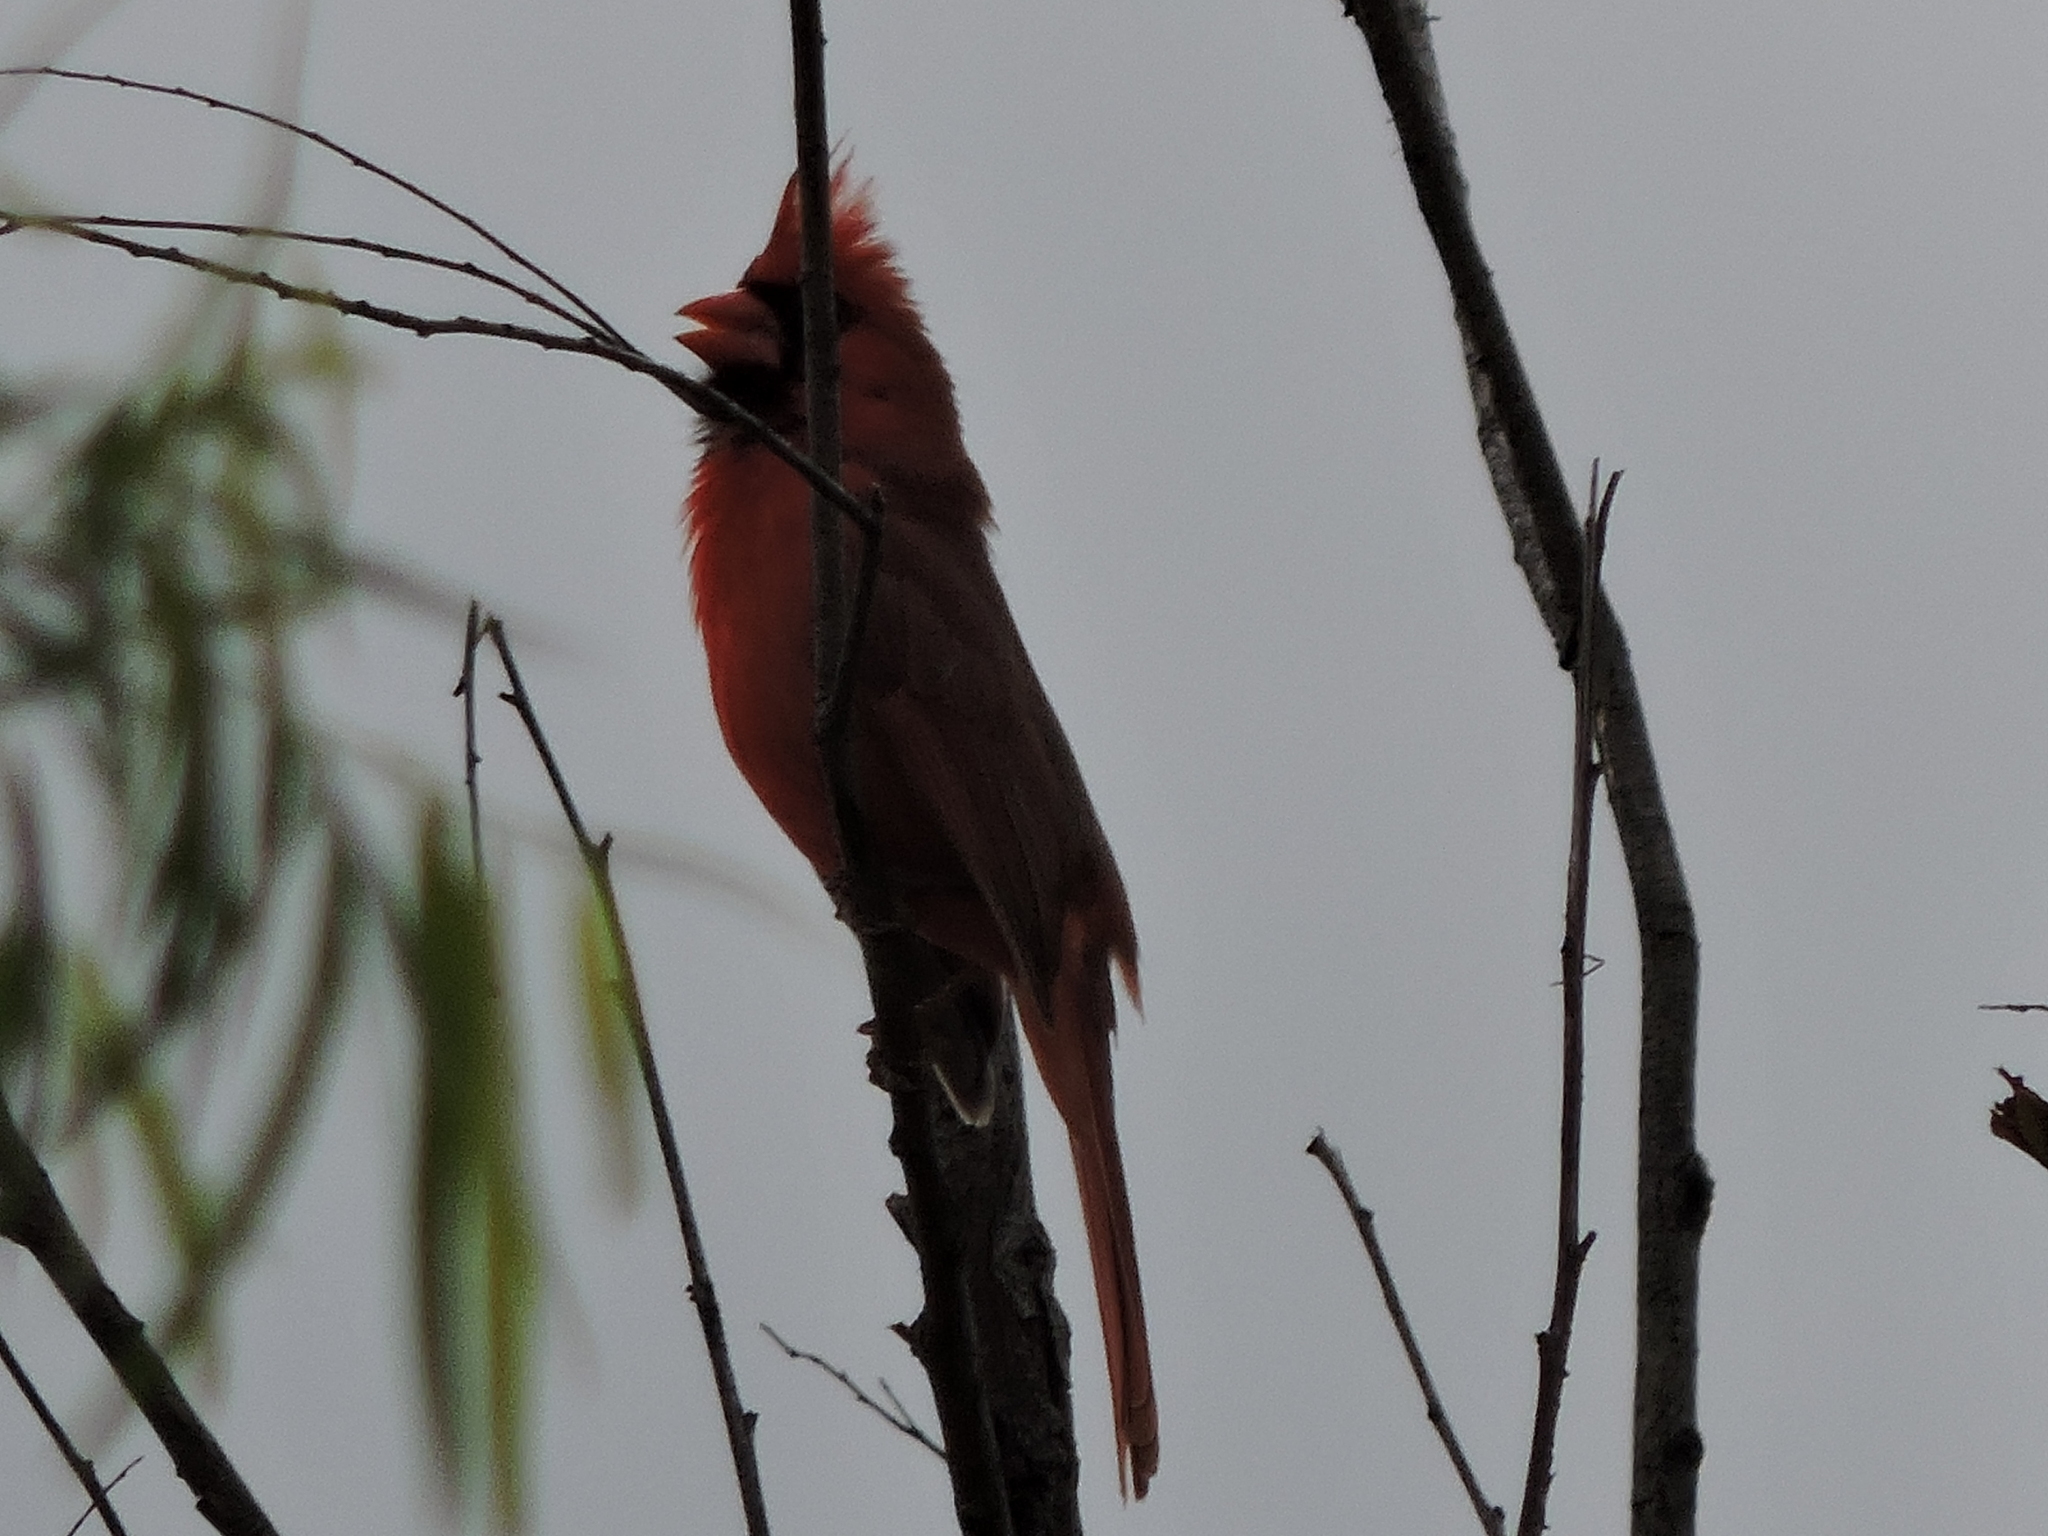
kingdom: Animalia
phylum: Chordata
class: Aves
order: Passeriformes
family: Cardinalidae
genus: Cardinalis
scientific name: Cardinalis cardinalis
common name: Northern cardinal
